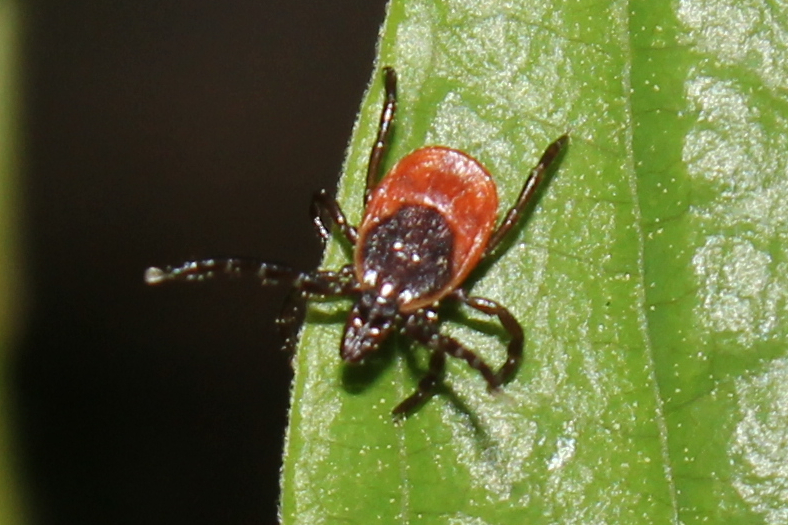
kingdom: Animalia
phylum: Arthropoda
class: Arachnida
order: Ixodida
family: Ixodidae
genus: Ixodes
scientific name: Ixodes scapularis
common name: Black legged tick
